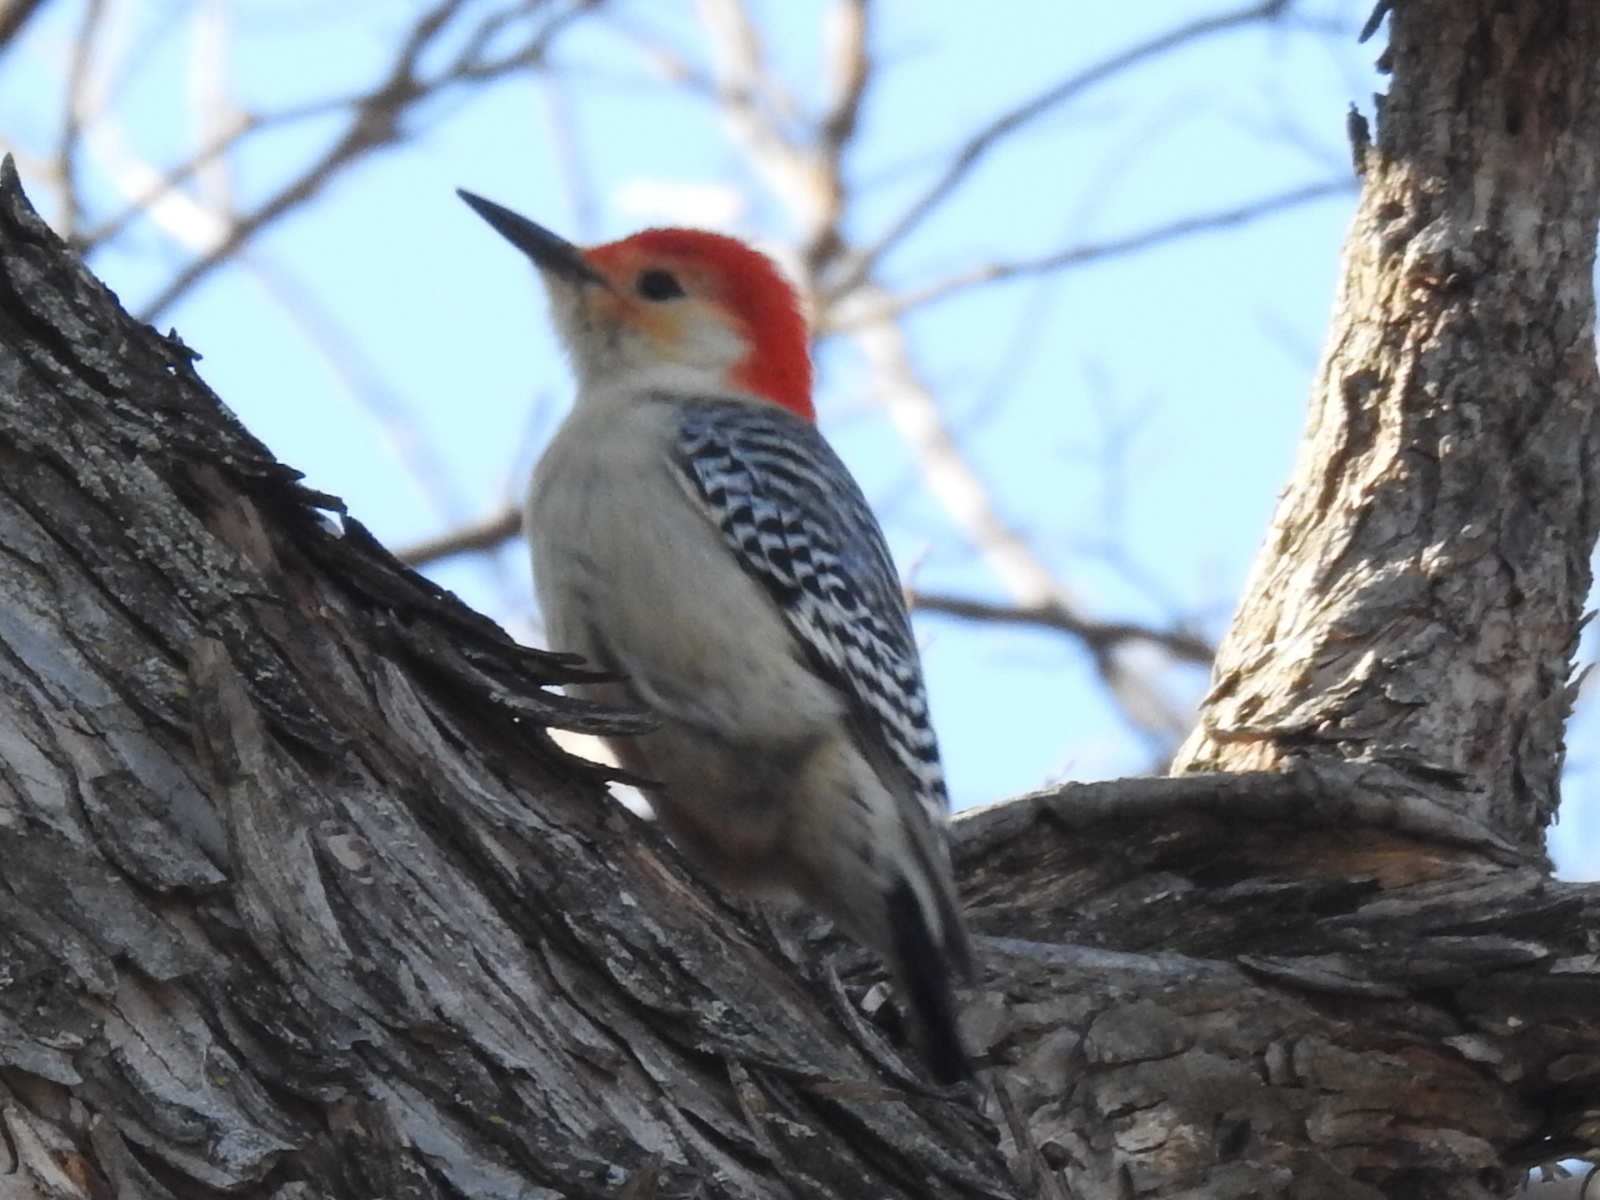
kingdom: Animalia
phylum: Chordata
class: Aves
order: Piciformes
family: Picidae
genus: Melanerpes
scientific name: Melanerpes carolinus
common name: Red-bellied woodpecker
